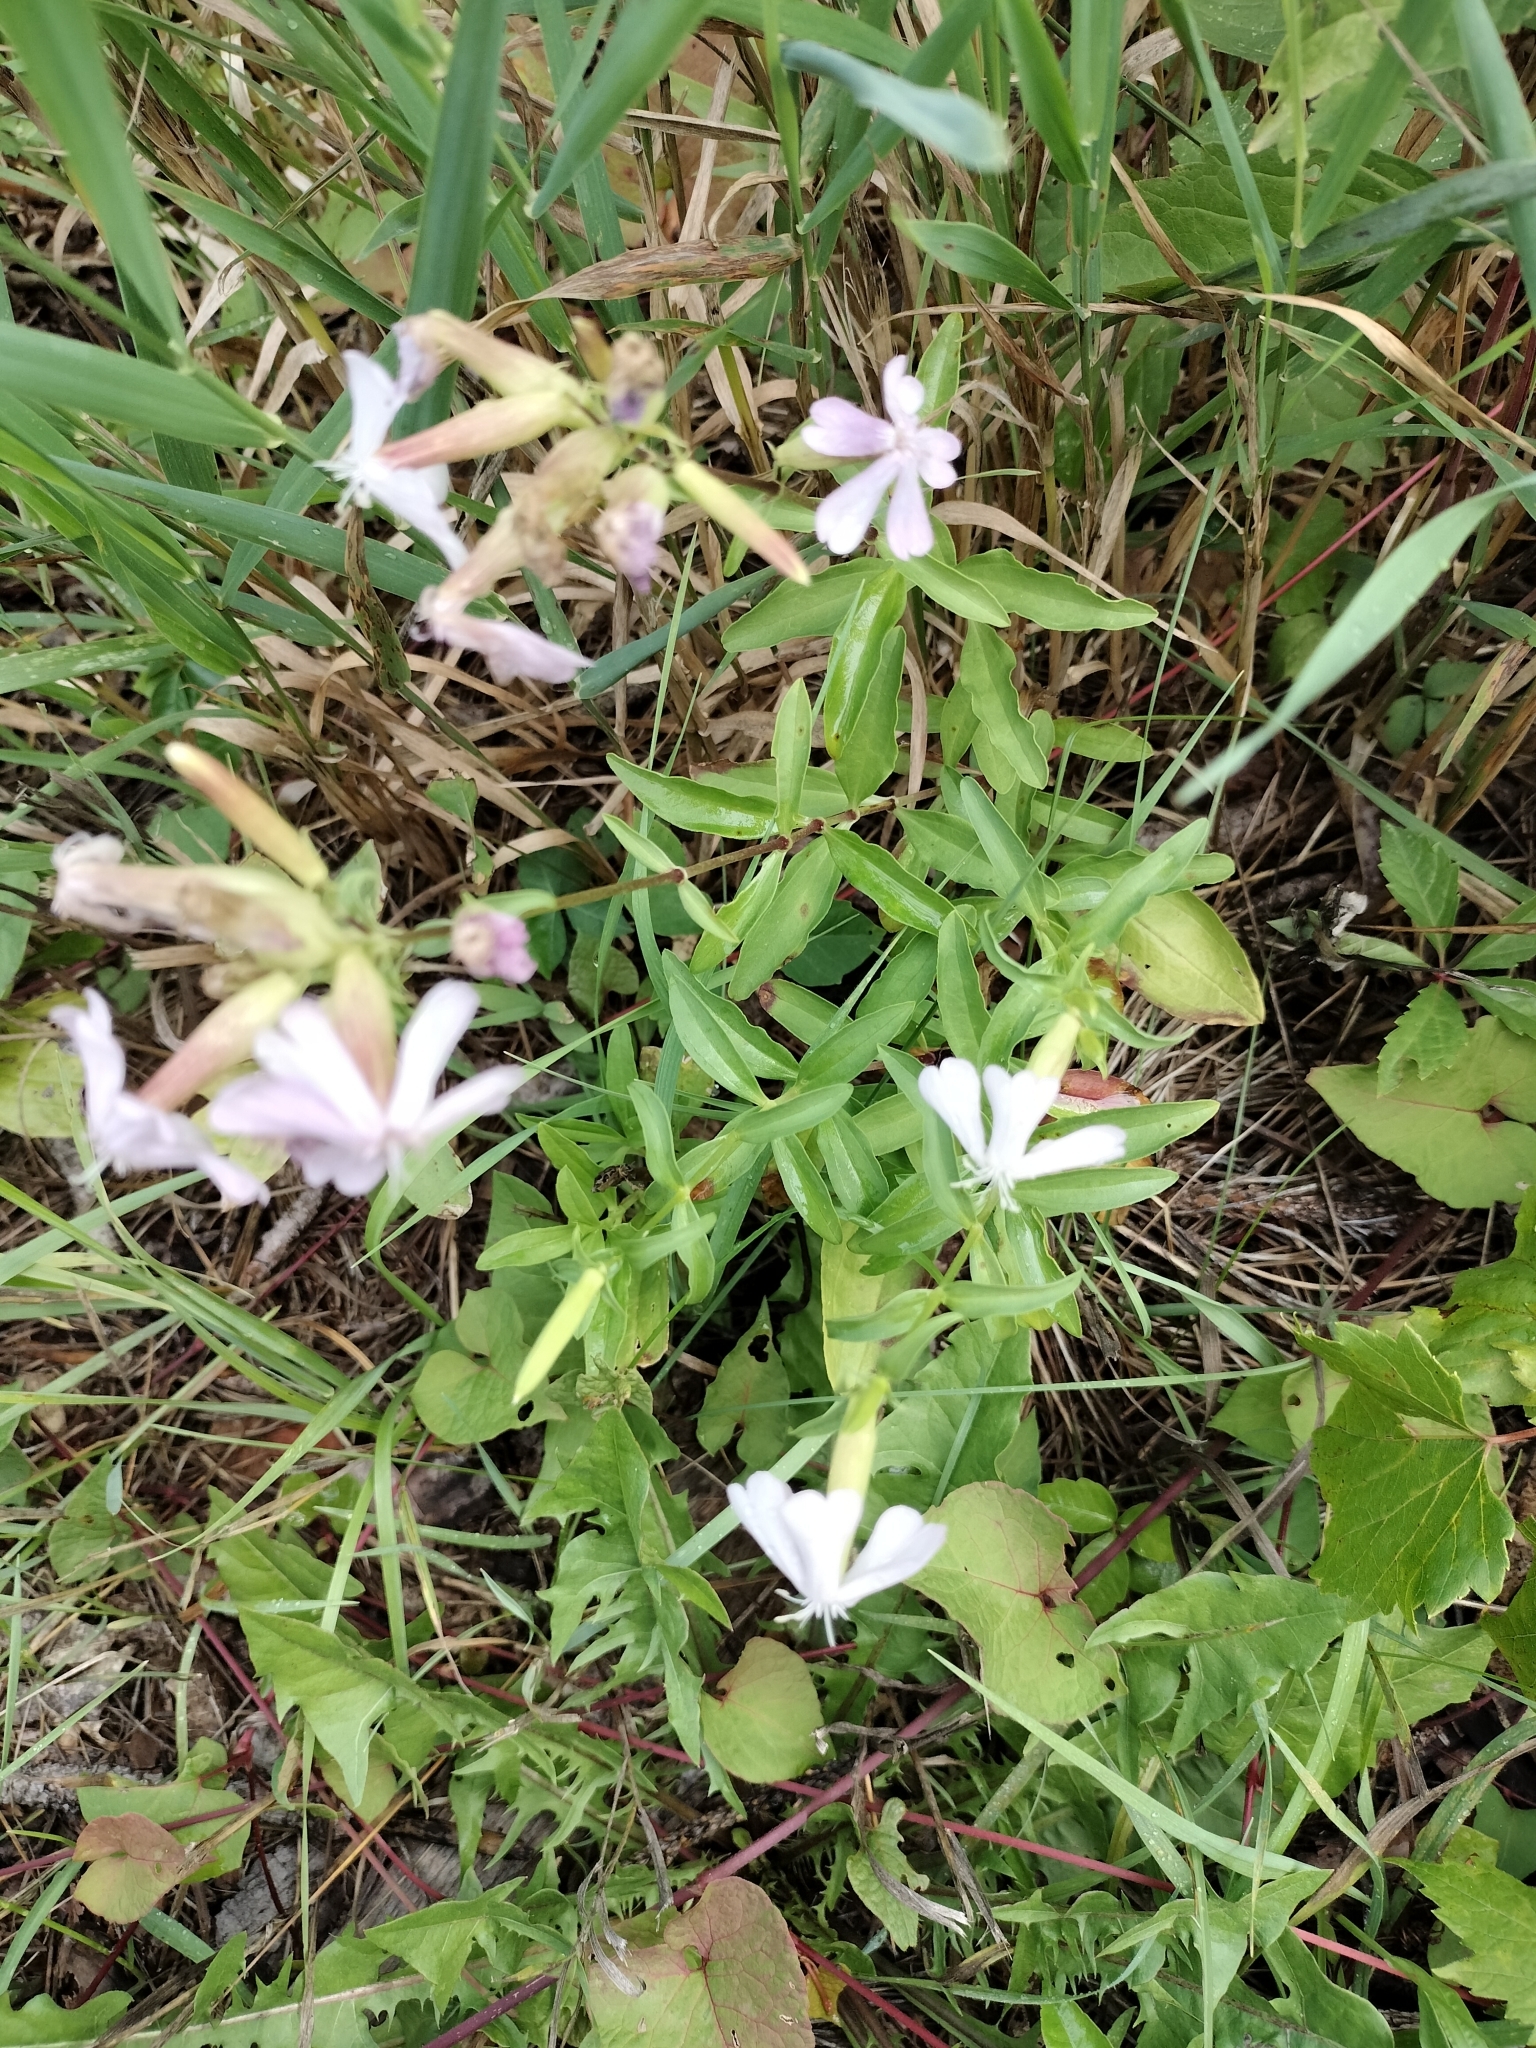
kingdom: Plantae
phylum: Tracheophyta
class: Magnoliopsida
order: Caryophyllales
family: Caryophyllaceae
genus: Saponaria
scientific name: Saponaria officinalis
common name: Soapwort
